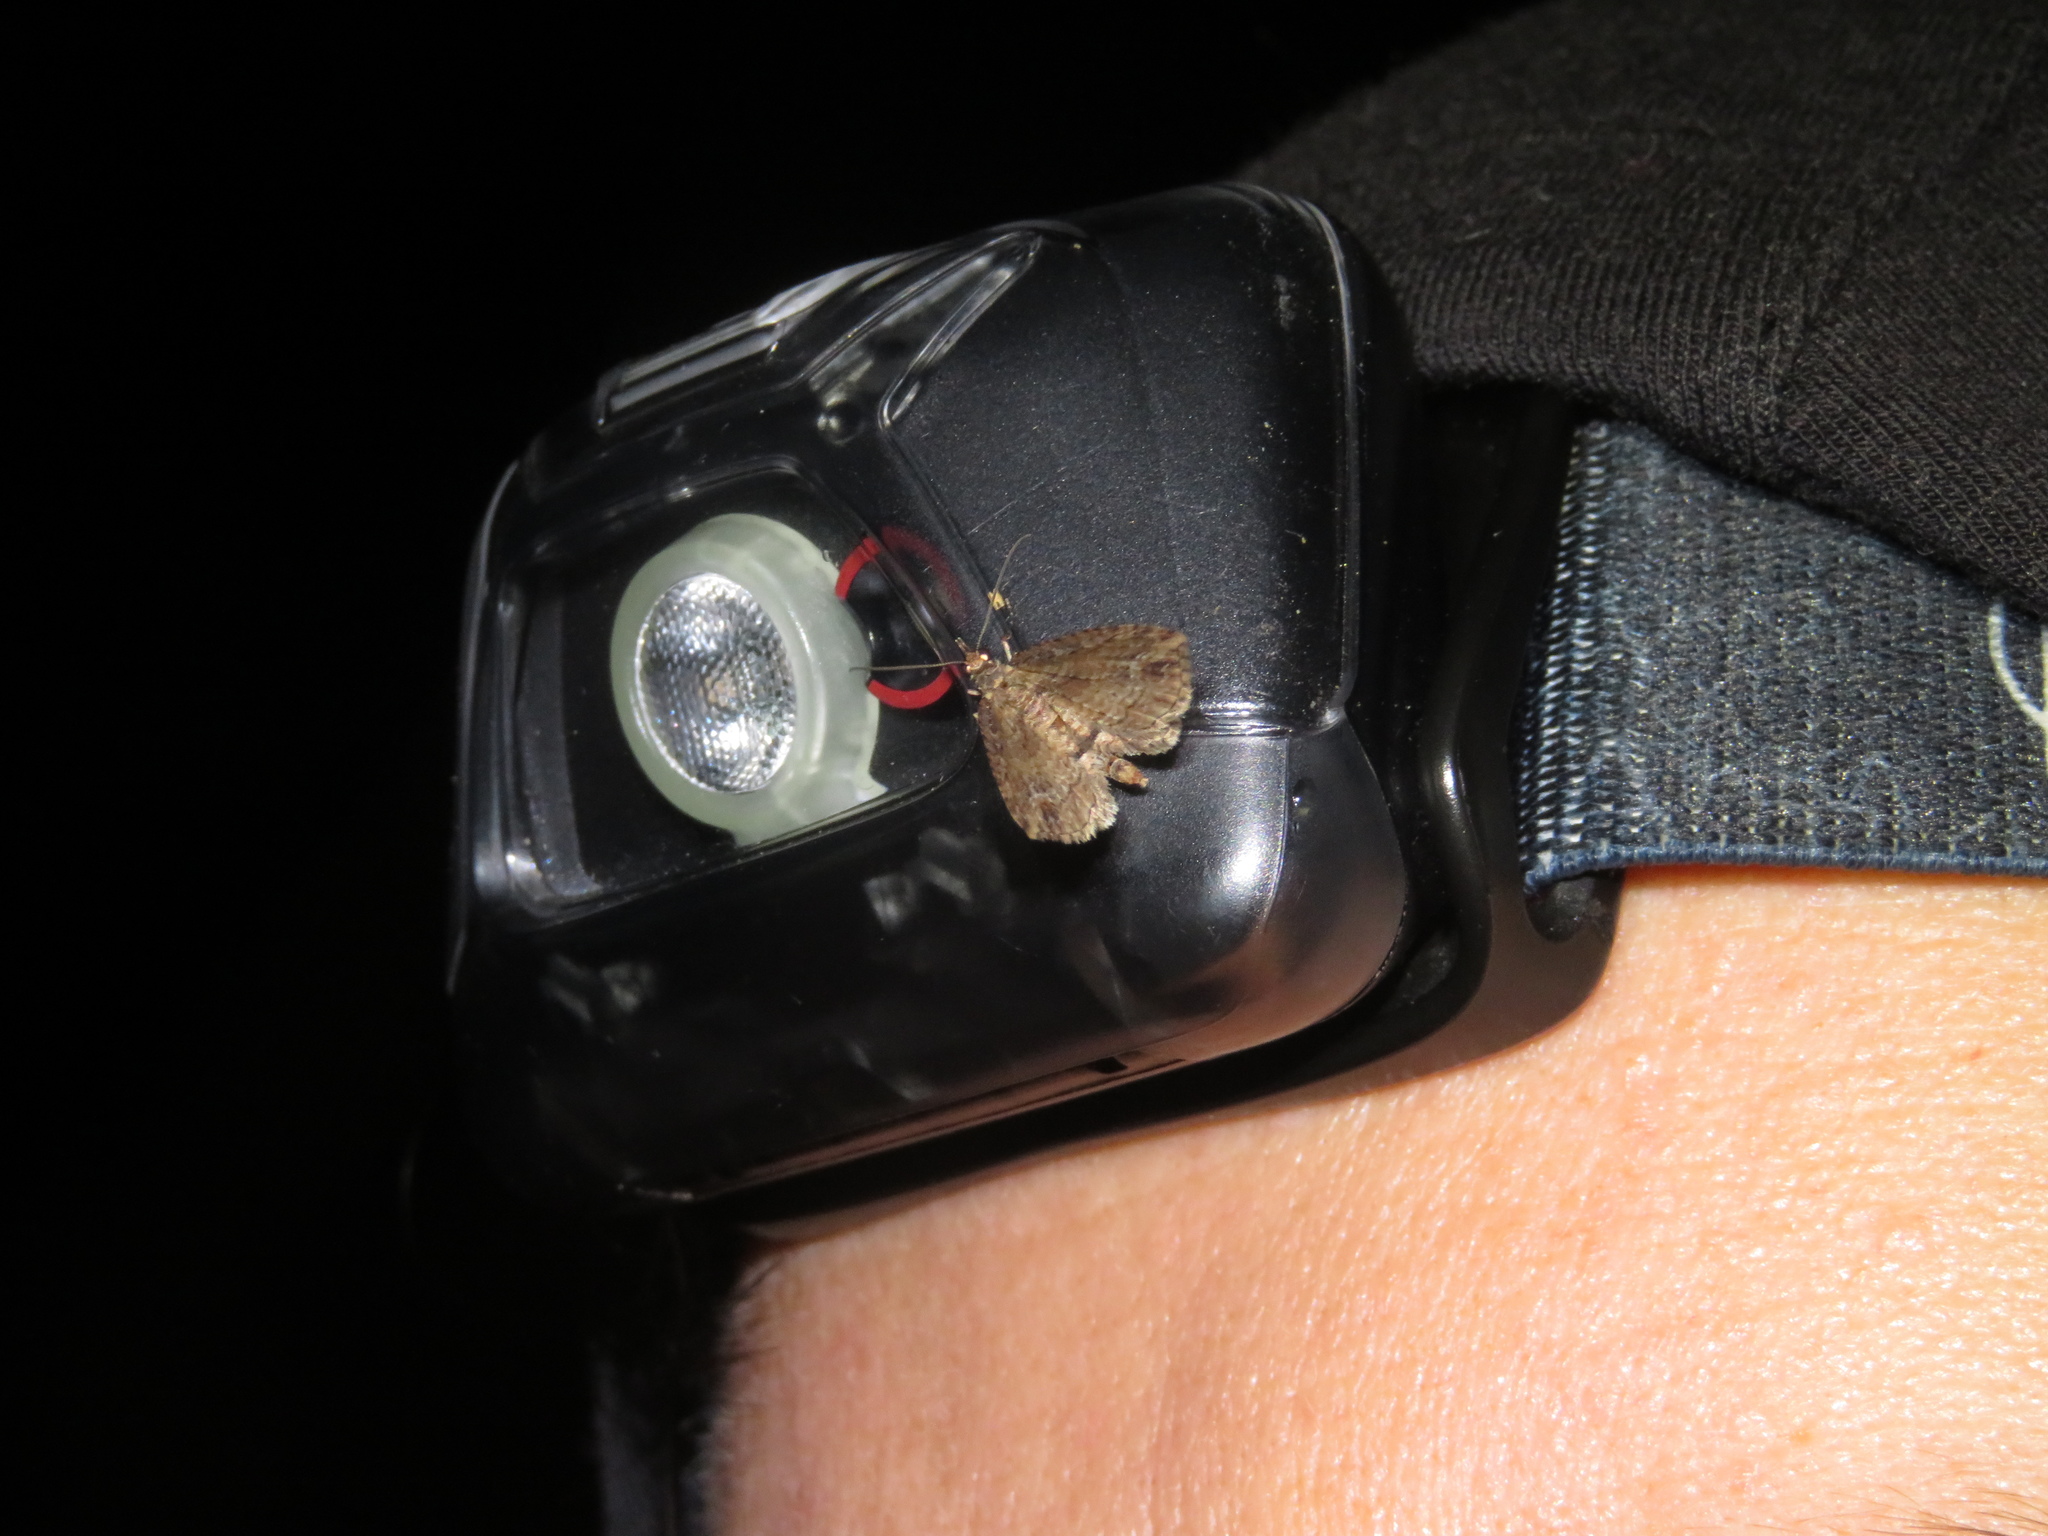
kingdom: Animalia
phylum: Arthropoda
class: Insecta
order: Lepidoptera
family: Geometridae
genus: Chloroclystis
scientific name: Chloroclystis filata
